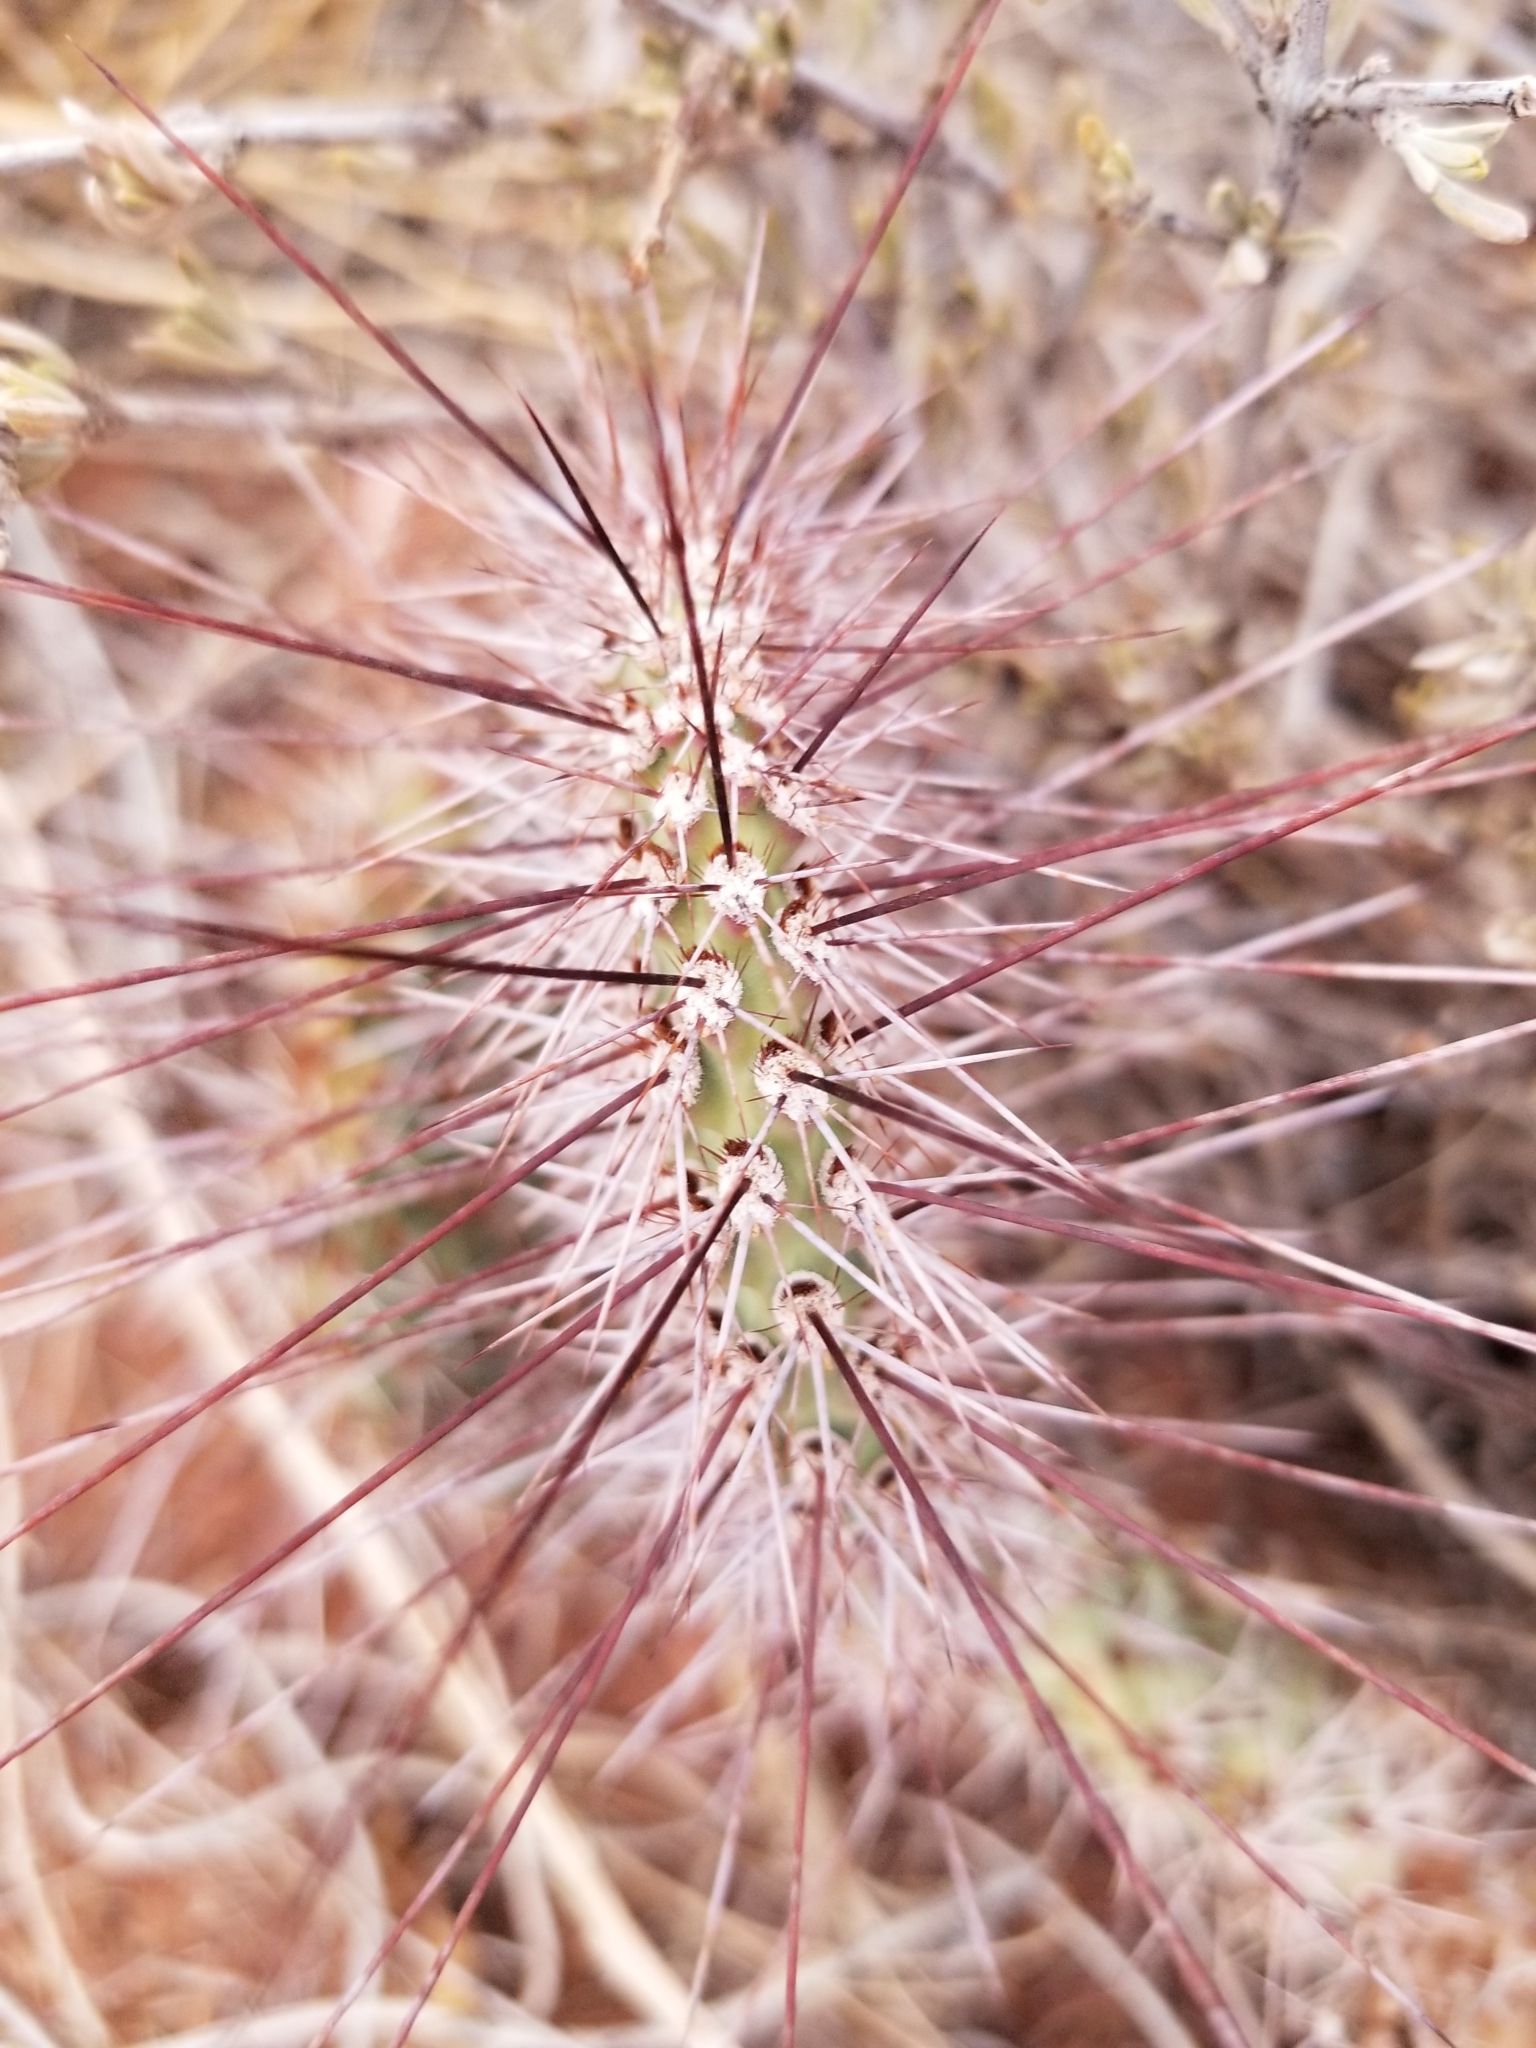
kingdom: Plantae
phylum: Tracheophyta
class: Magnoliopsida
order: Caryophyllales
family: Cactaceae
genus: Opuntia
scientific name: Opuntia polyacantha
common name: Plains prickly-pear
